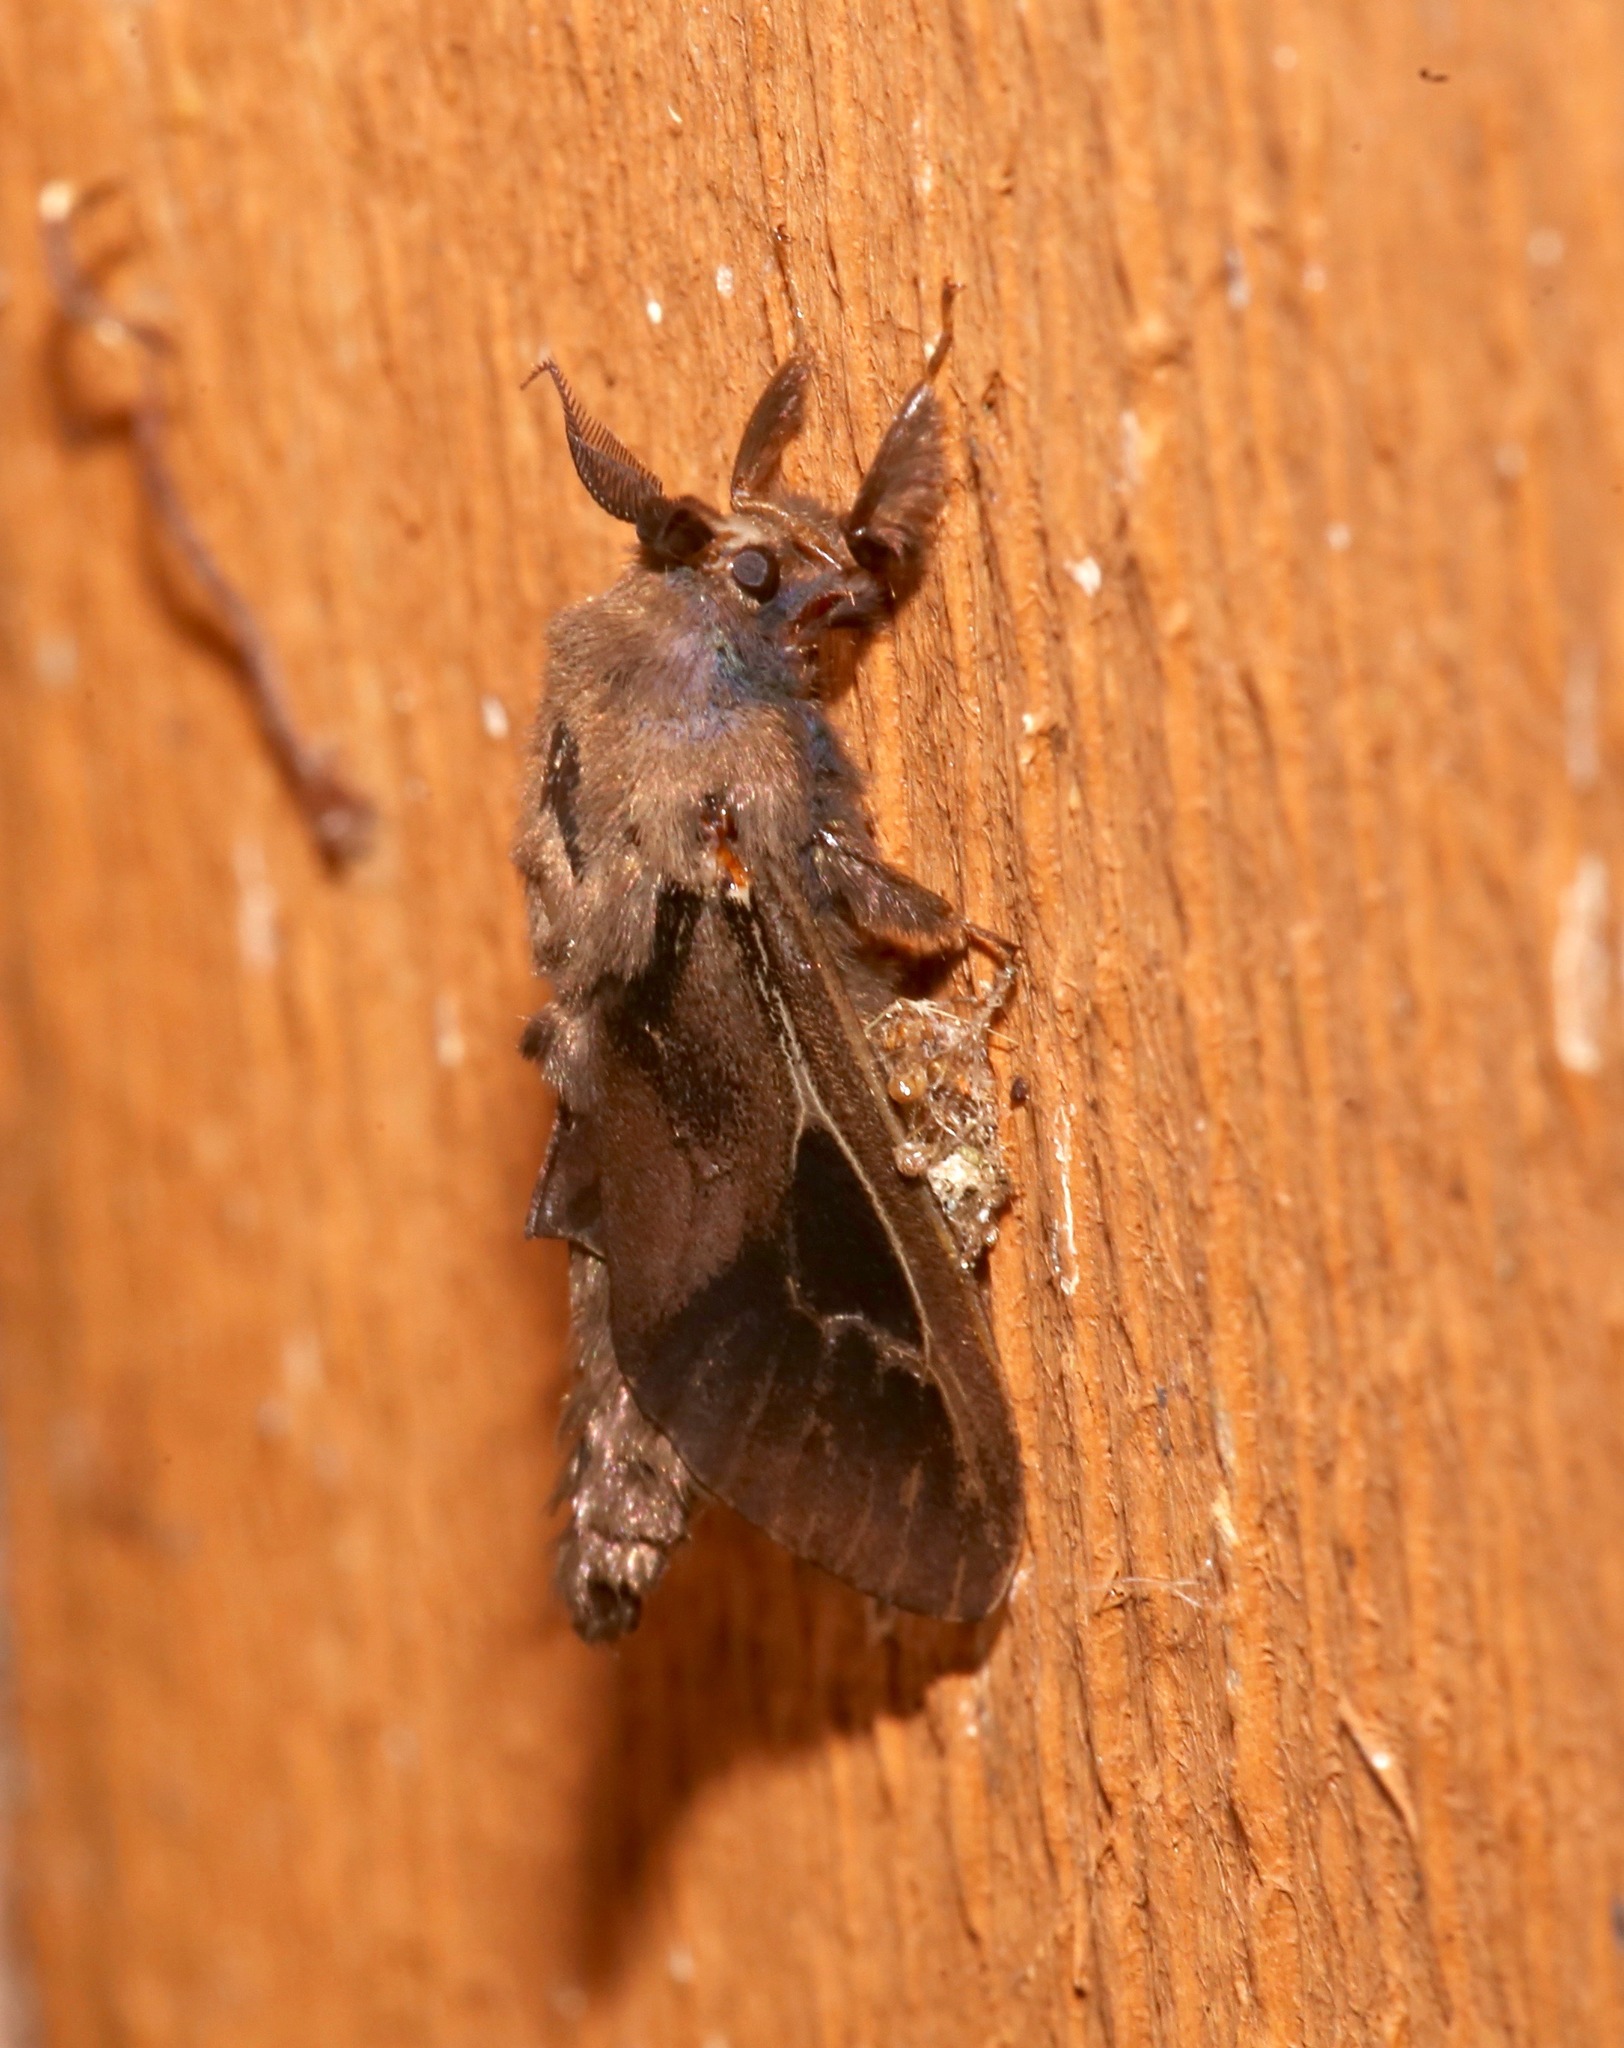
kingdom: Animalia
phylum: Arthropoda
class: Insecta
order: Lepidoptera
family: Psychidae
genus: Oiketicus
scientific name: Oiketicus
